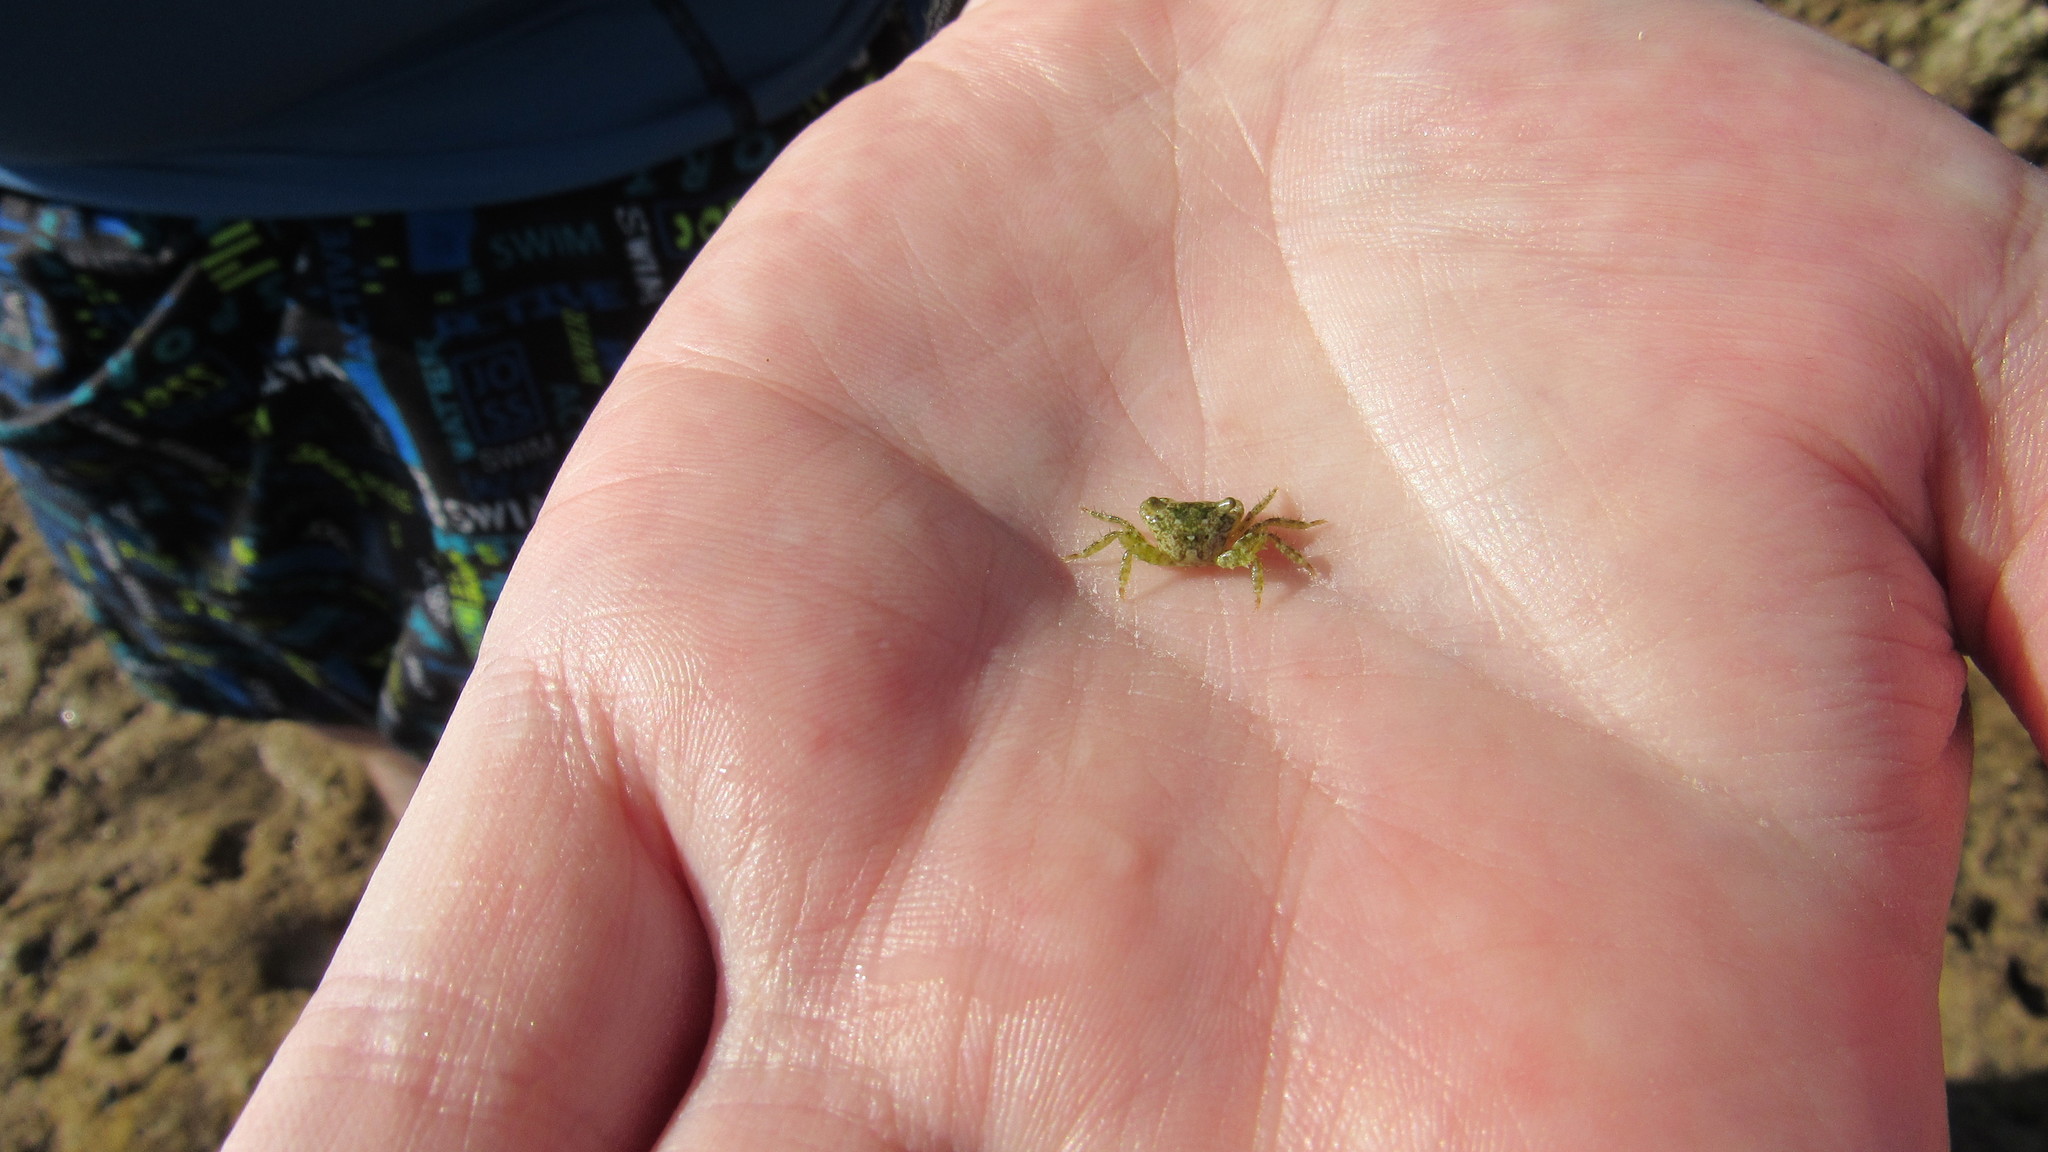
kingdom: Animalia
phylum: Arthropoda
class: Malacostraca
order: Decapoda
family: Grapsidae
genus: Pachygrapsus
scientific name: Pachygrapsus minutus
